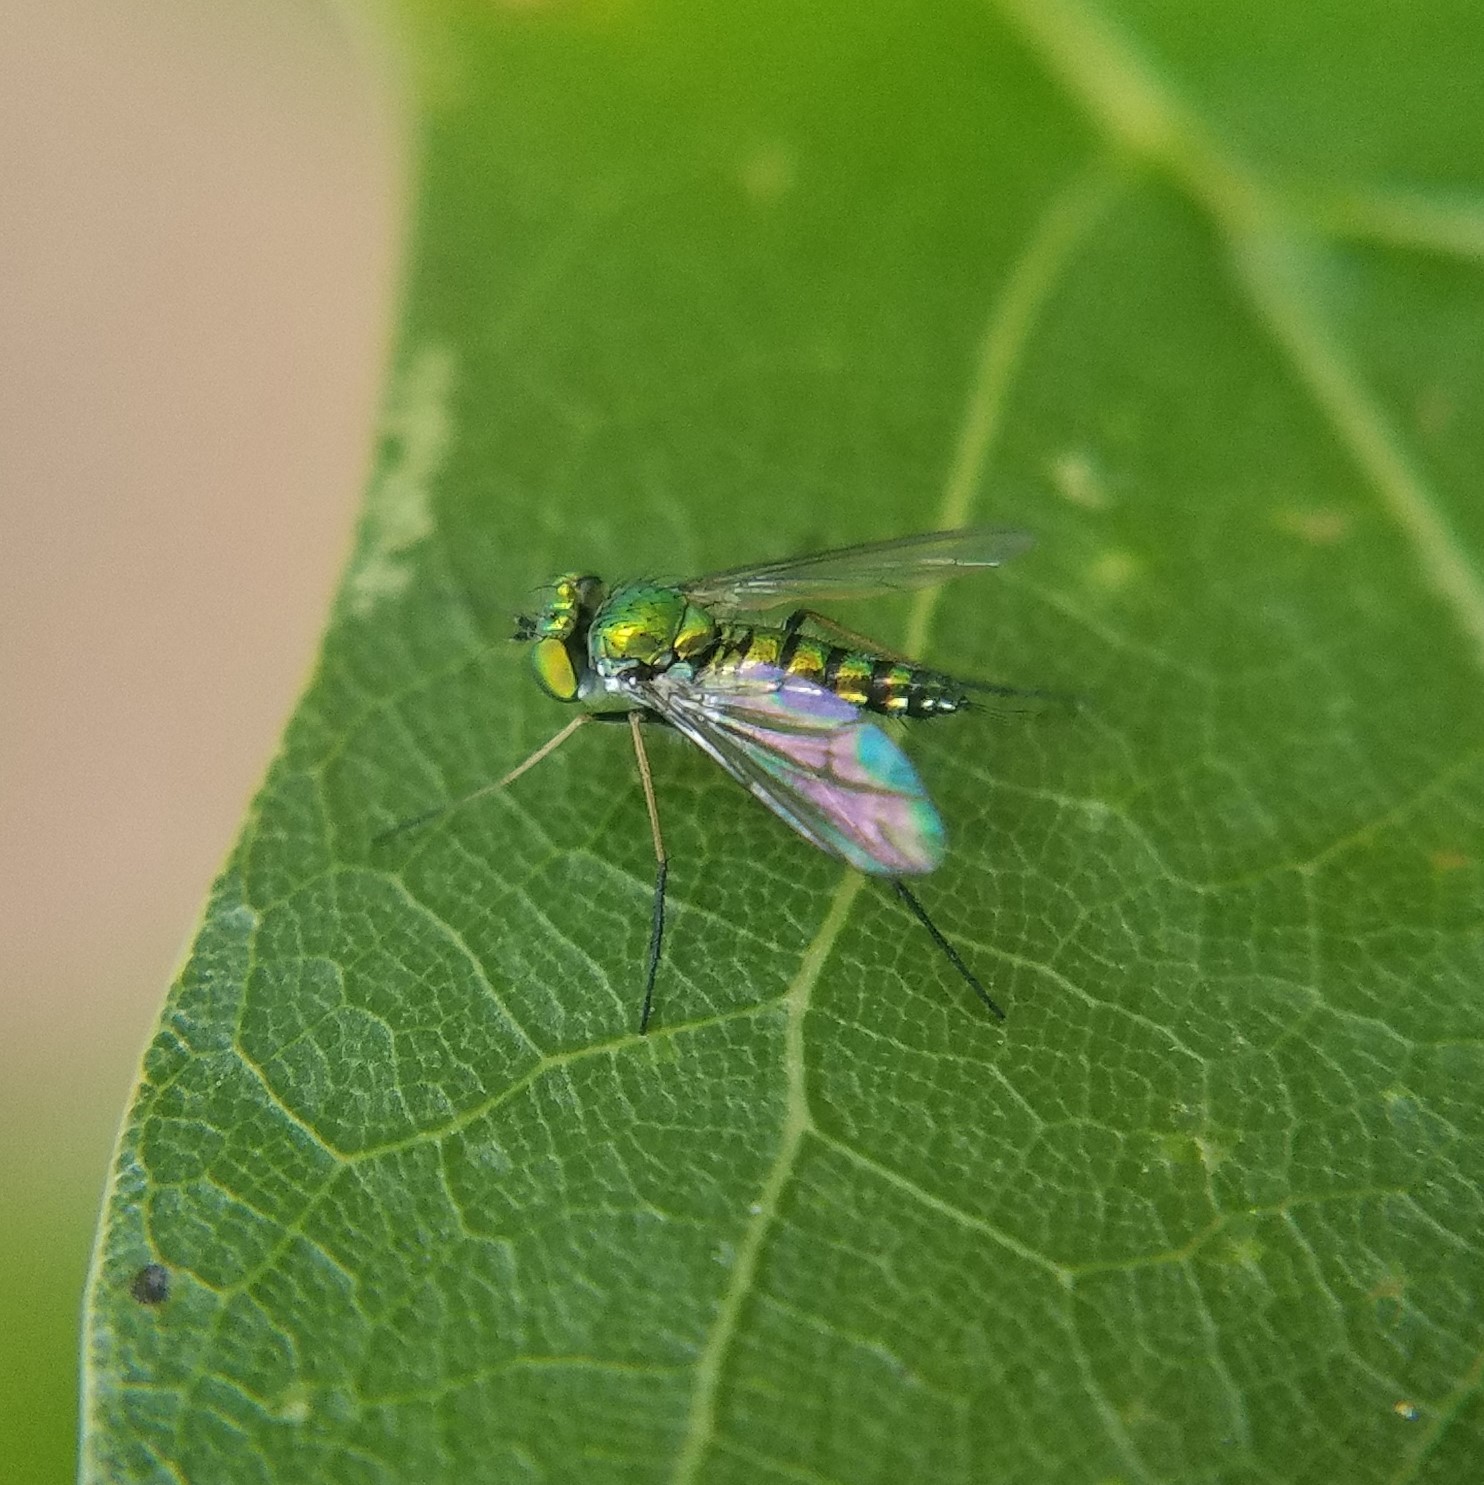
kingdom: Animalia
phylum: Arthropoda
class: Insecta
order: Diptera
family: Dolichopodidae
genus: Condylostylus
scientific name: Condylostylus caudatus
